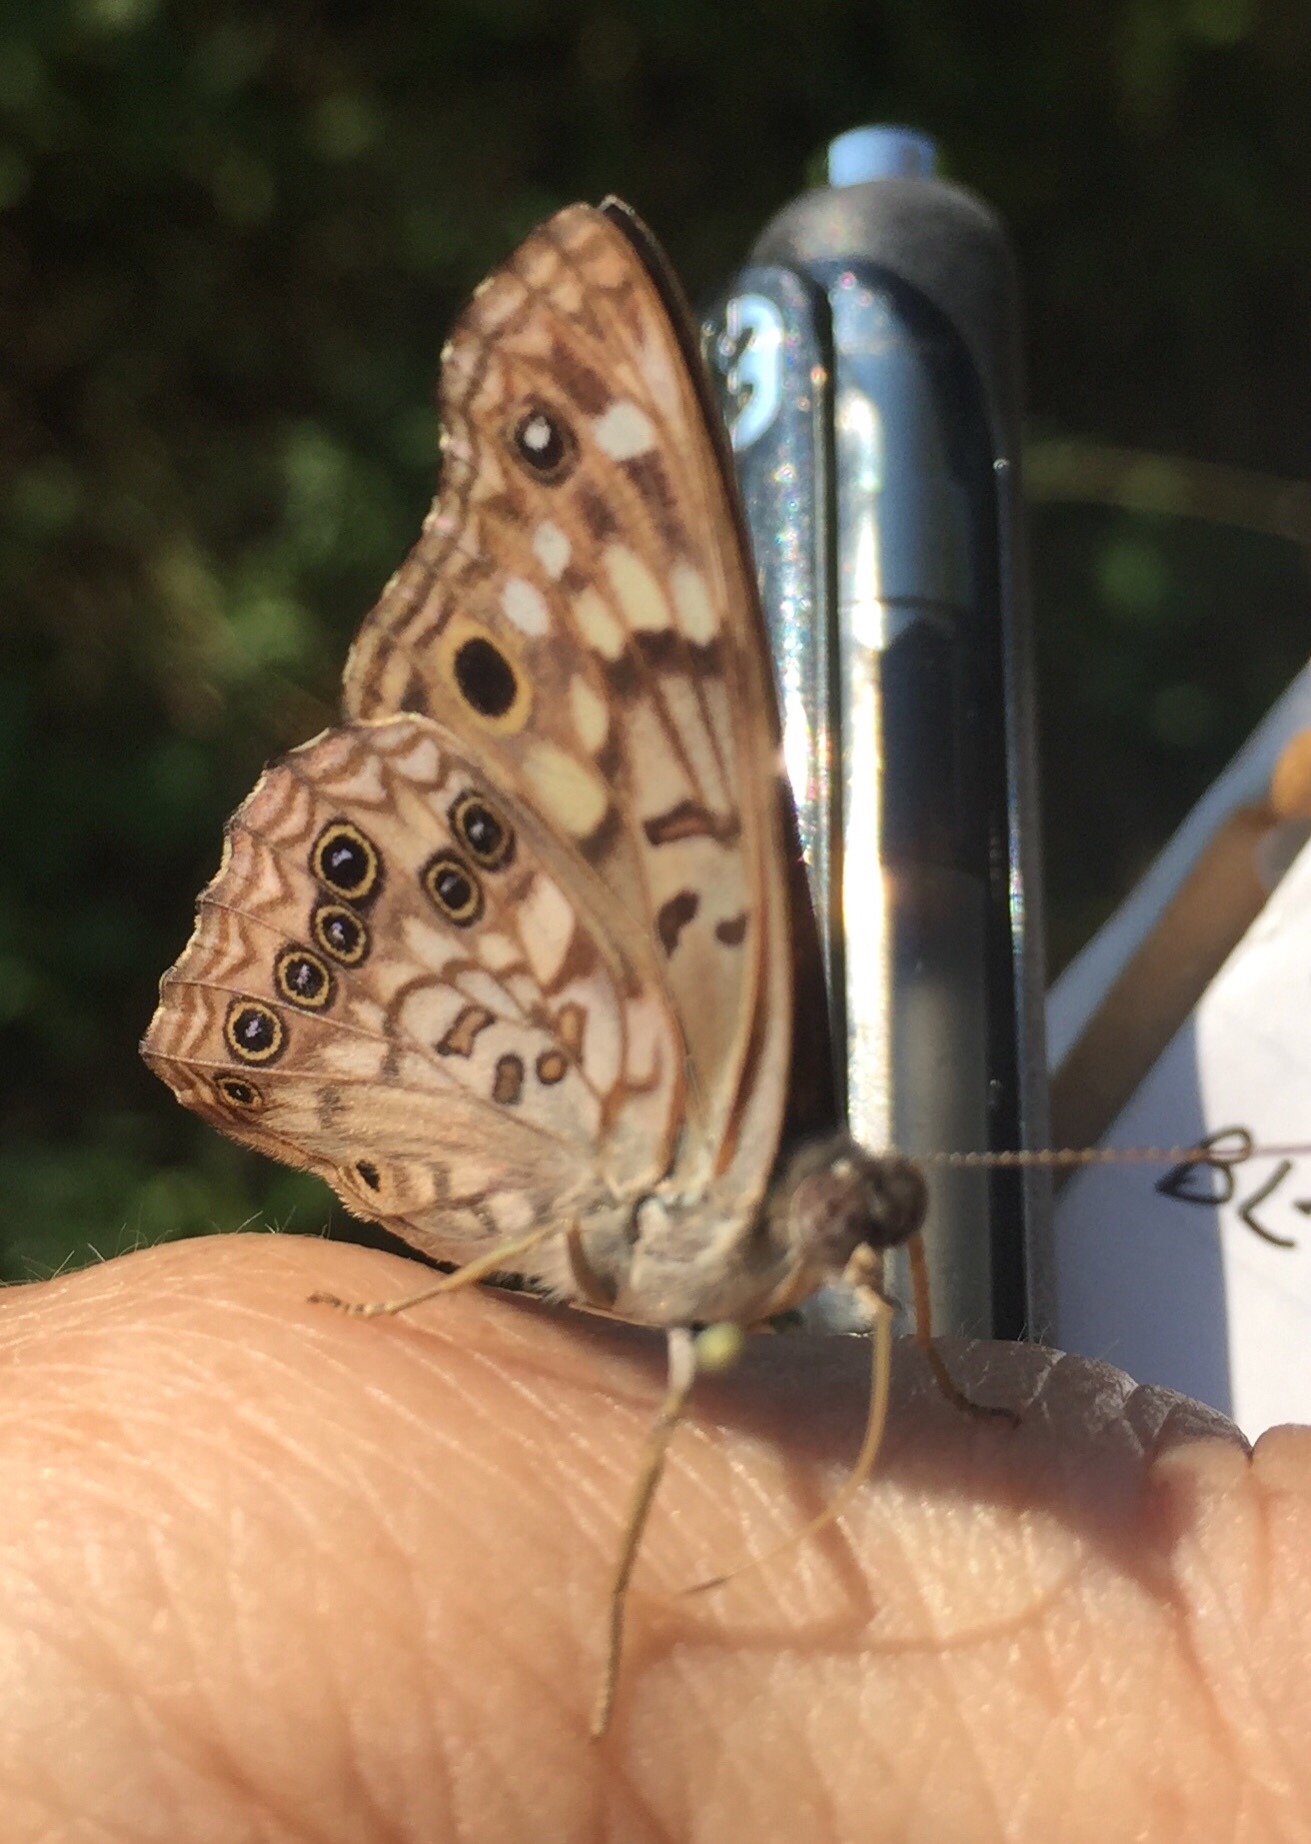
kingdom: Animalia
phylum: Arthropoda
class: Insecta
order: Lepidoptera
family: Nymphalidae
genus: Asterocampa
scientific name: Asterocampa celtis
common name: Hackberry emperor
